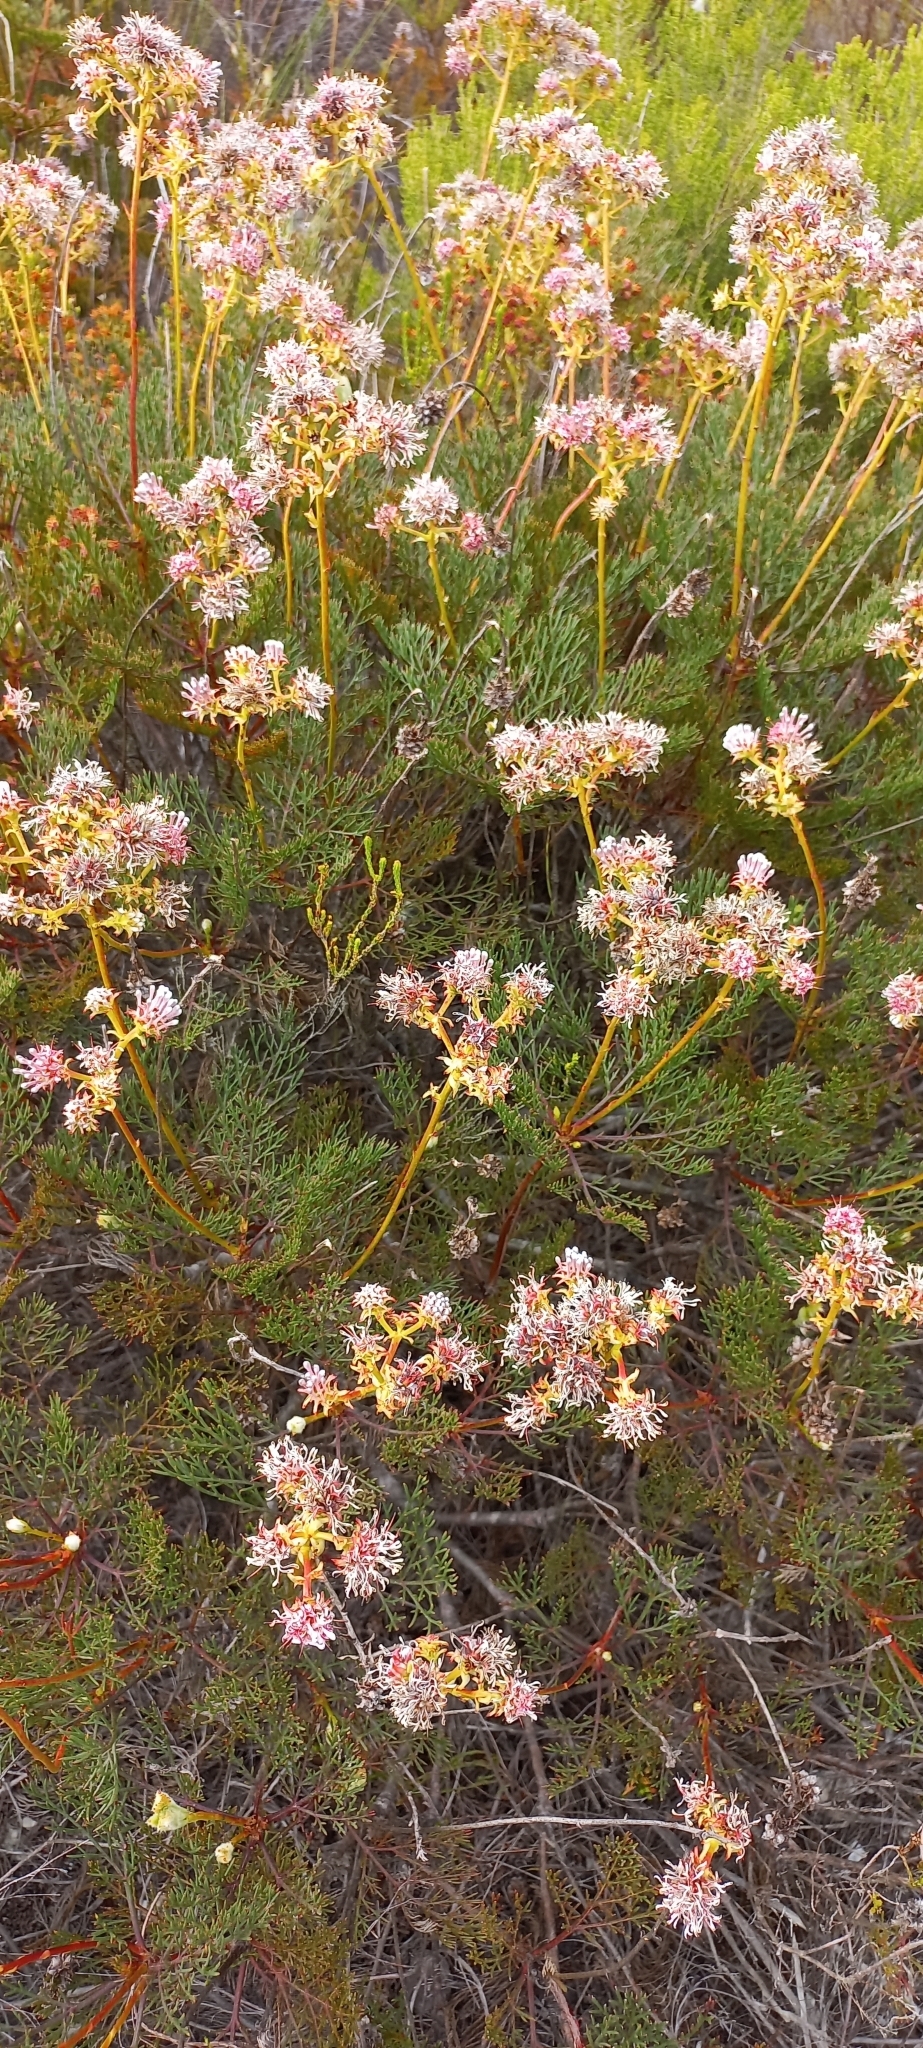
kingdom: Plantae
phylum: Tracheophyta
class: Magnoliopsida
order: Proteales
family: Proteaceae
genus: Serruria
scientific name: Serruria elongata
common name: Long-stalk spiderhead
